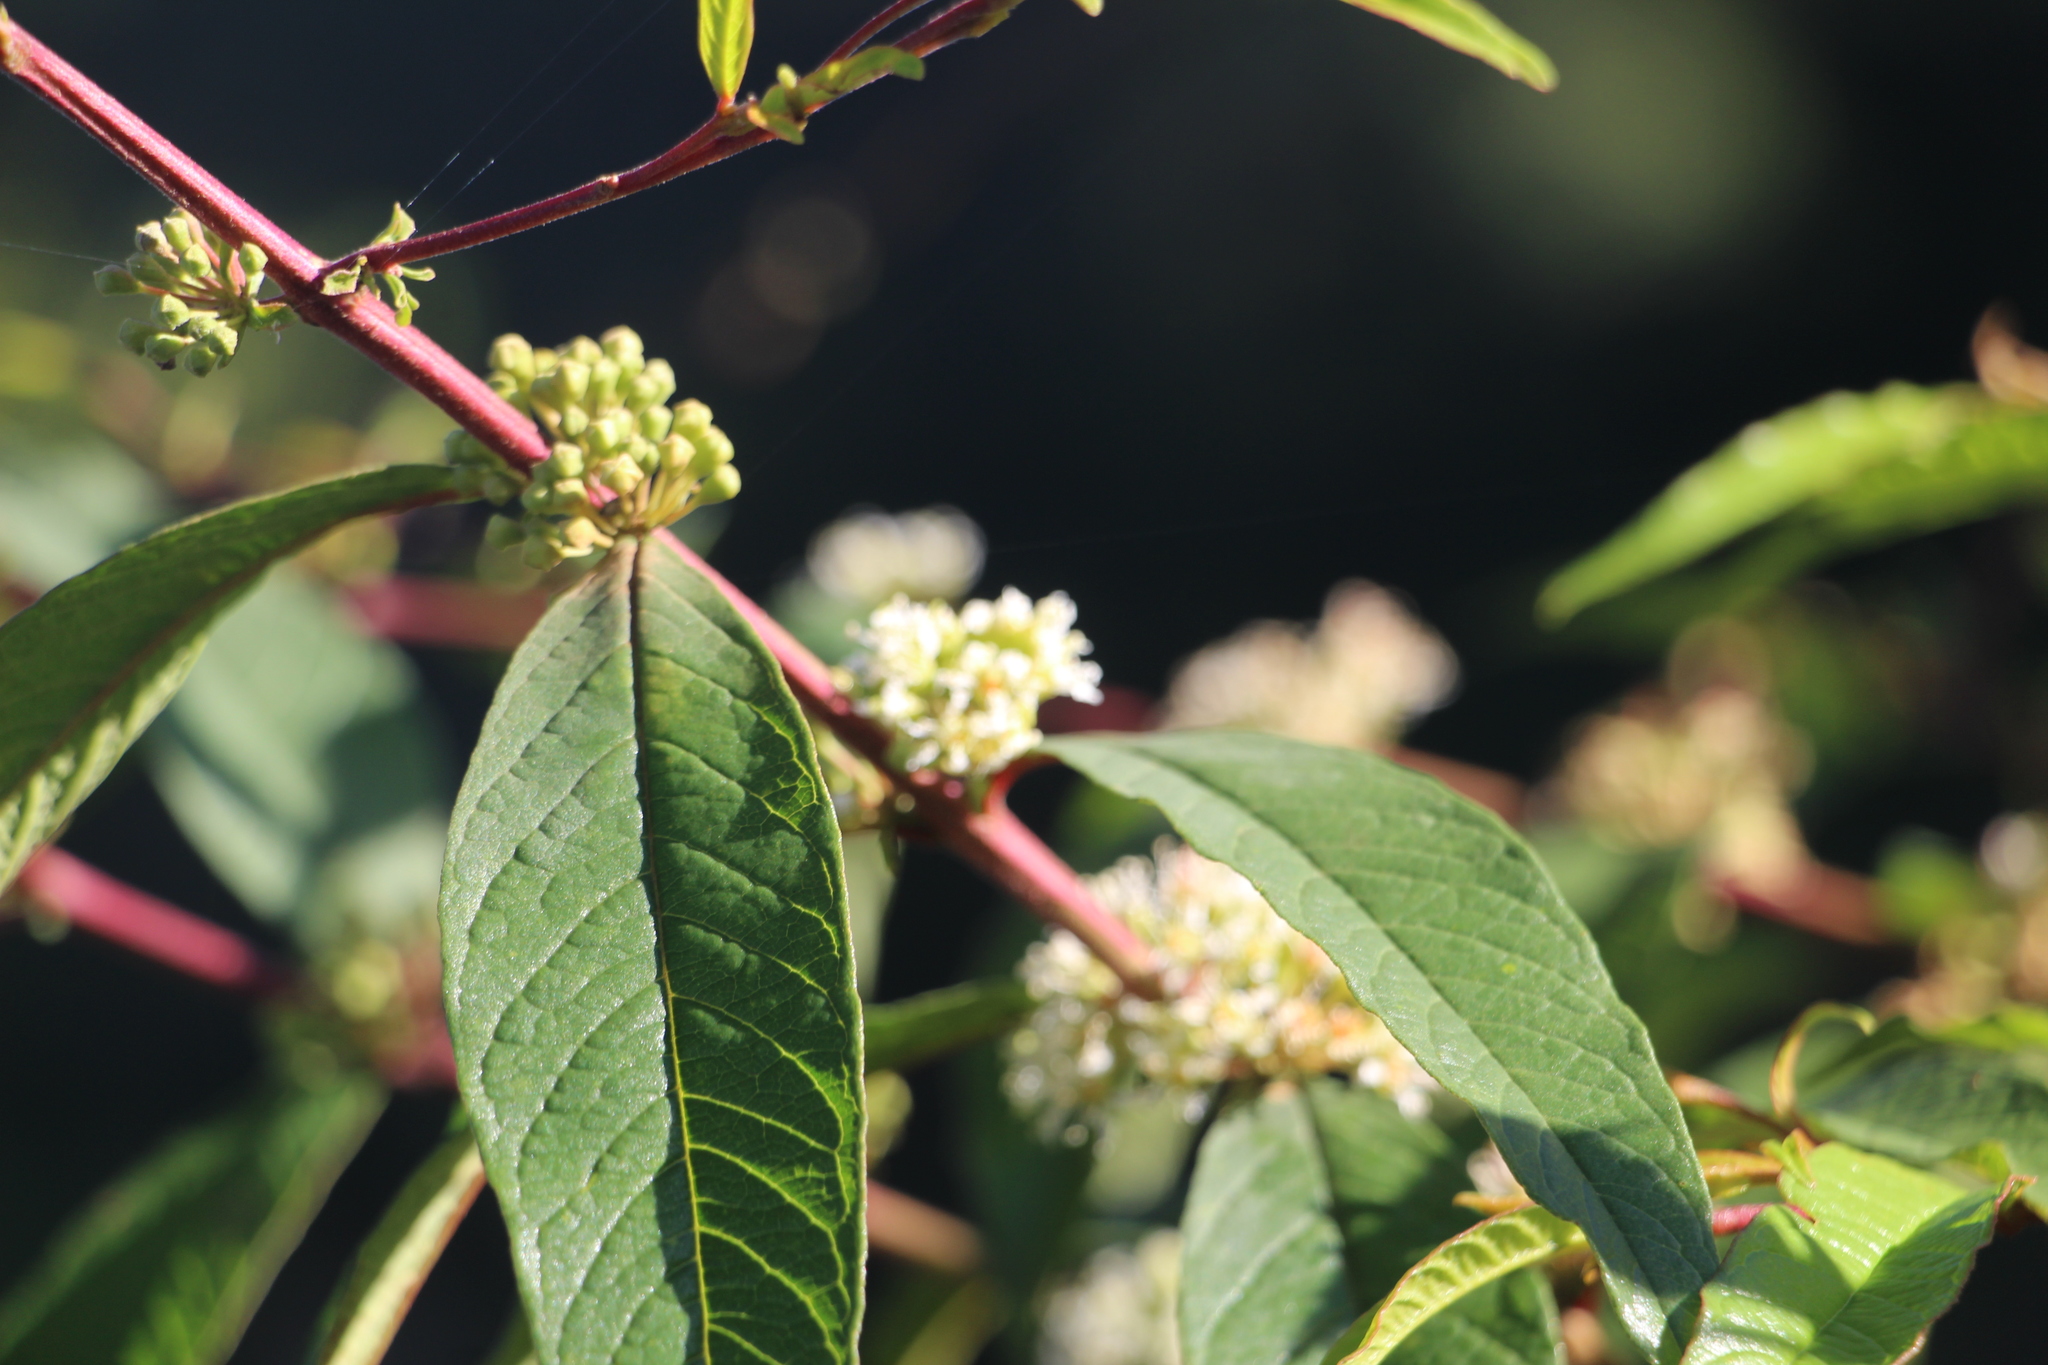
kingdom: Plantae
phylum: Tracheophyta
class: Magnoliopsida
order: Myrtales
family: Lythraceae
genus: Adenaria
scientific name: Adenaria floribunda
